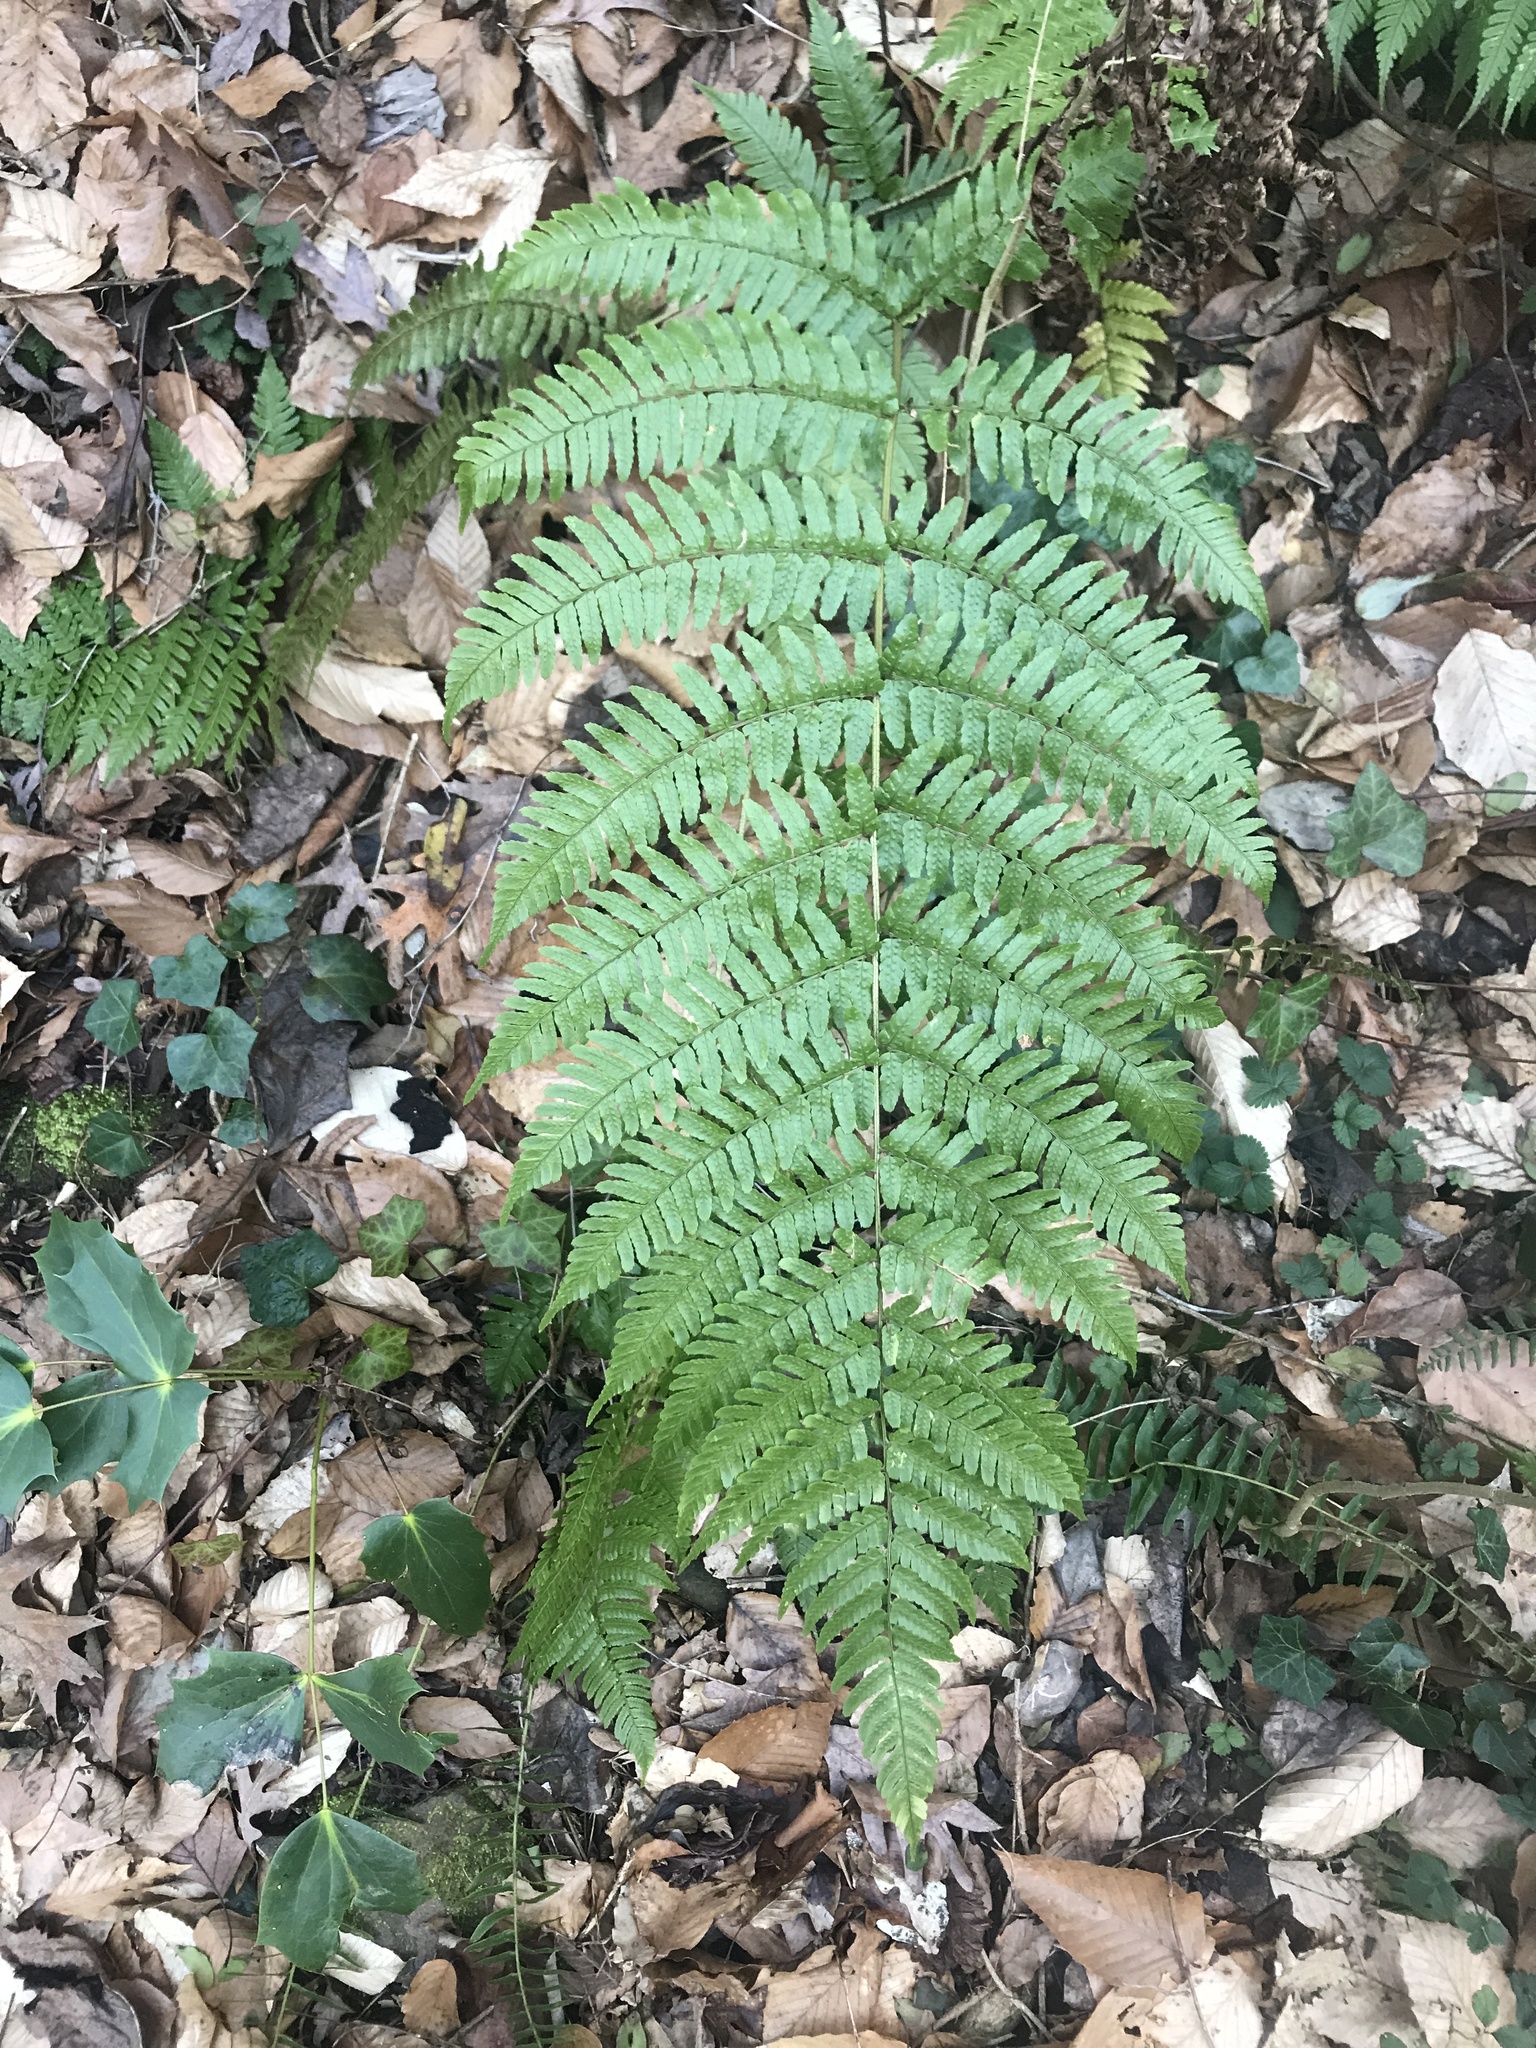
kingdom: Plantae
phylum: Tracheophyta
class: Polypodiopsida
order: Polypodiales
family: Dryopteridaceae
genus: Dryopteris
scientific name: Dryopteris erythrosora
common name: Autumn fern
